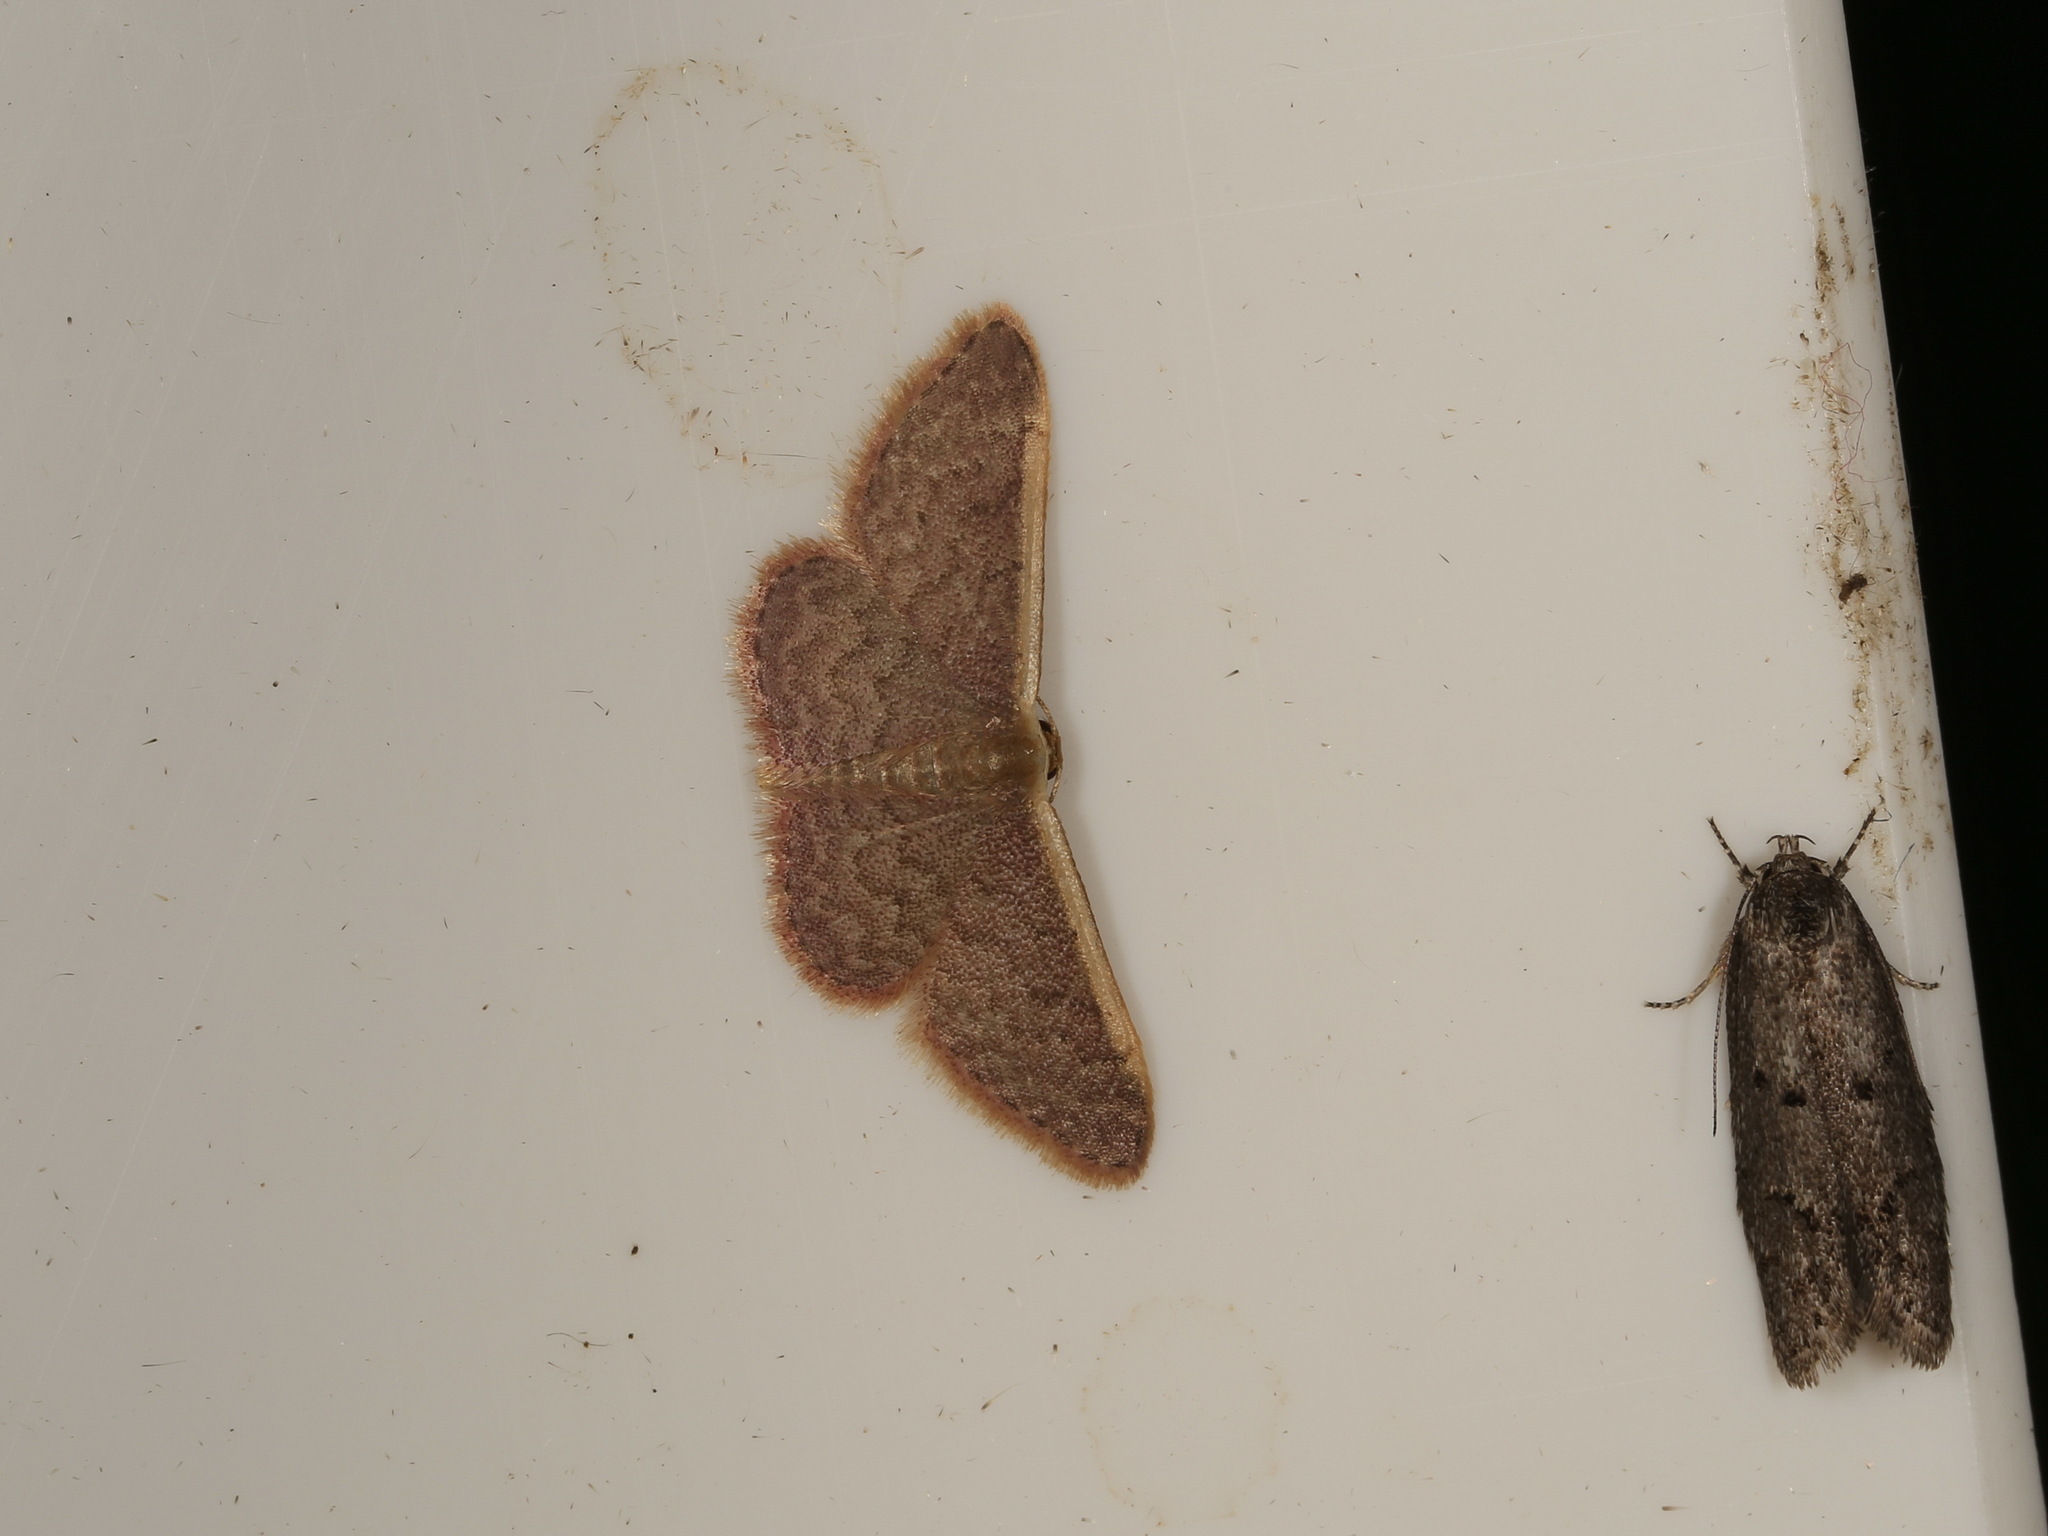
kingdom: Animalia
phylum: Arthropoda
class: Insecta
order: Lepidoptera
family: Geometridae
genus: Idaea
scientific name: Idaea inversata
